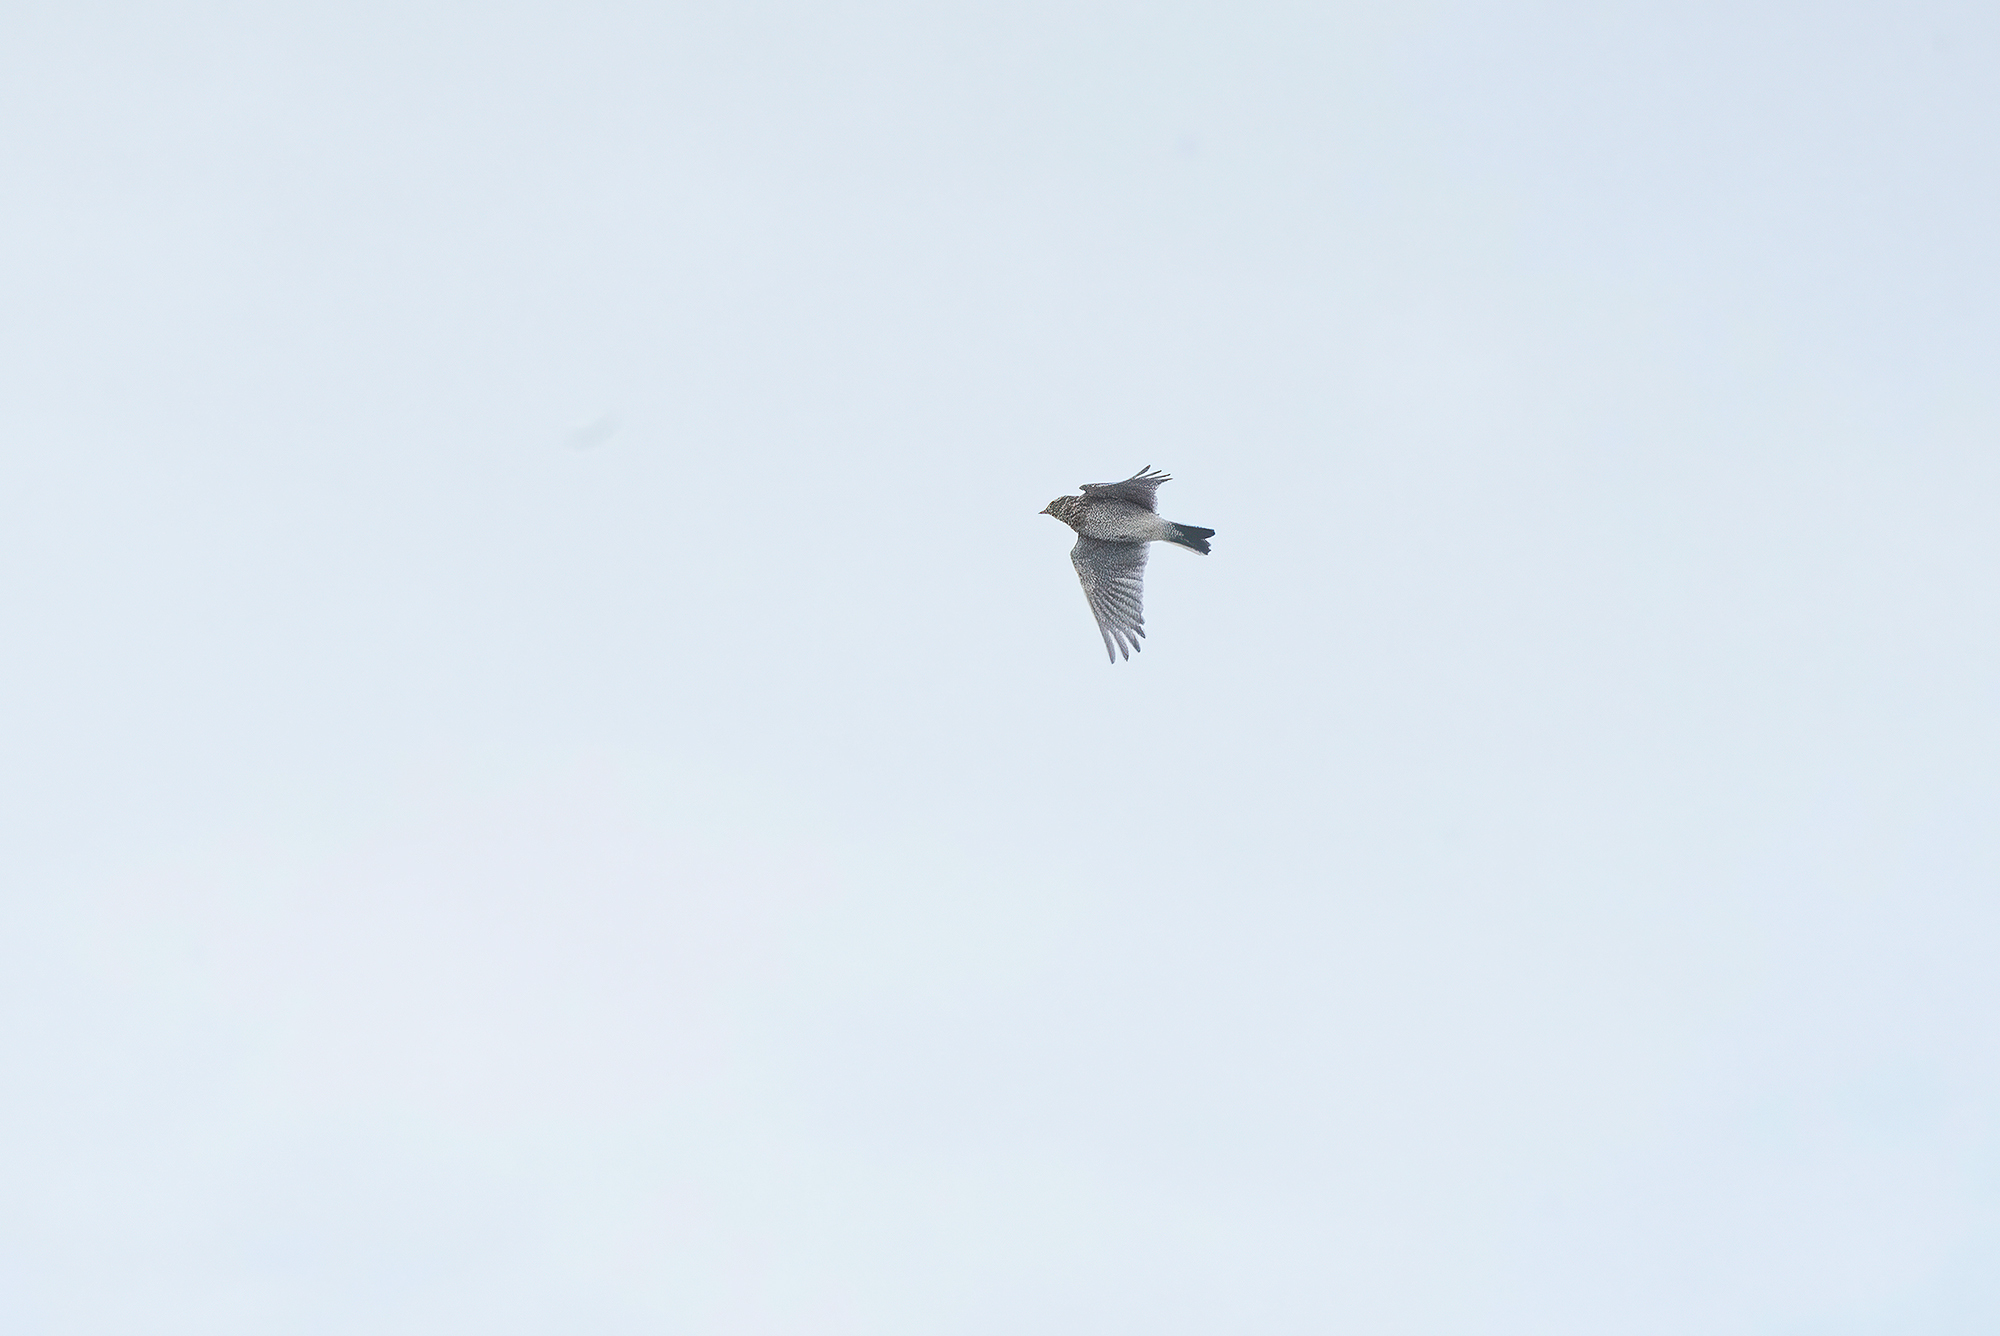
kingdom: Animalia
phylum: Chordata
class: Aves
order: Passeriformes
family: Alaudidae
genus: Alauda
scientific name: Alauda arvensis
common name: Eurasian skylark
